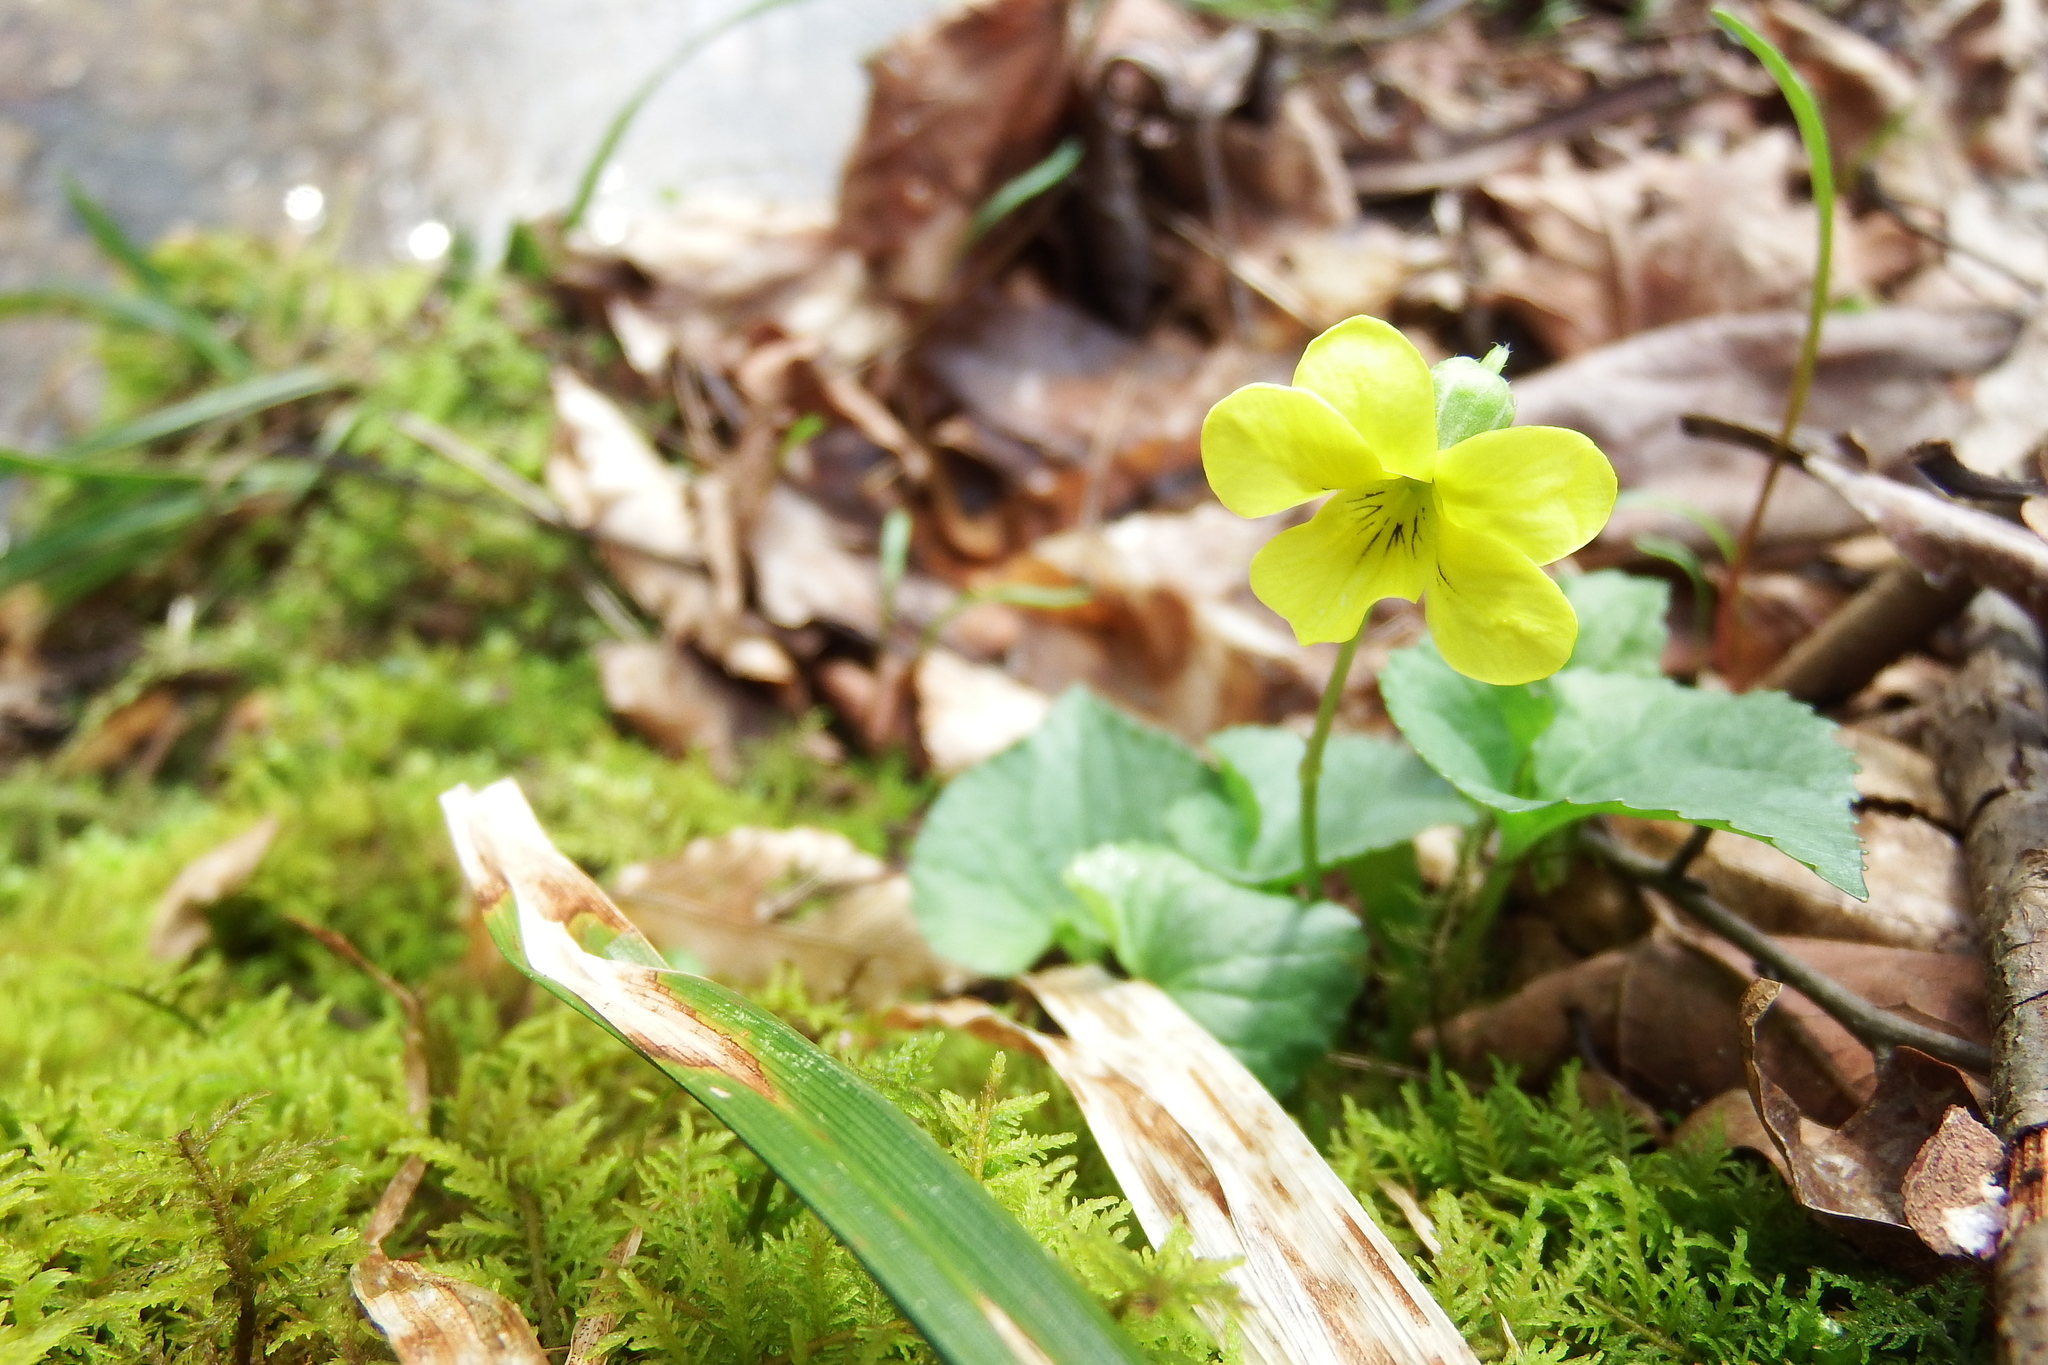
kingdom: Plantae
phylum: Tracheophyta
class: Magnoliopsida
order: Malpighiales
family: Violaceae
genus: Viola
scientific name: Viola eriocarpa
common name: Smooth yellow violet
